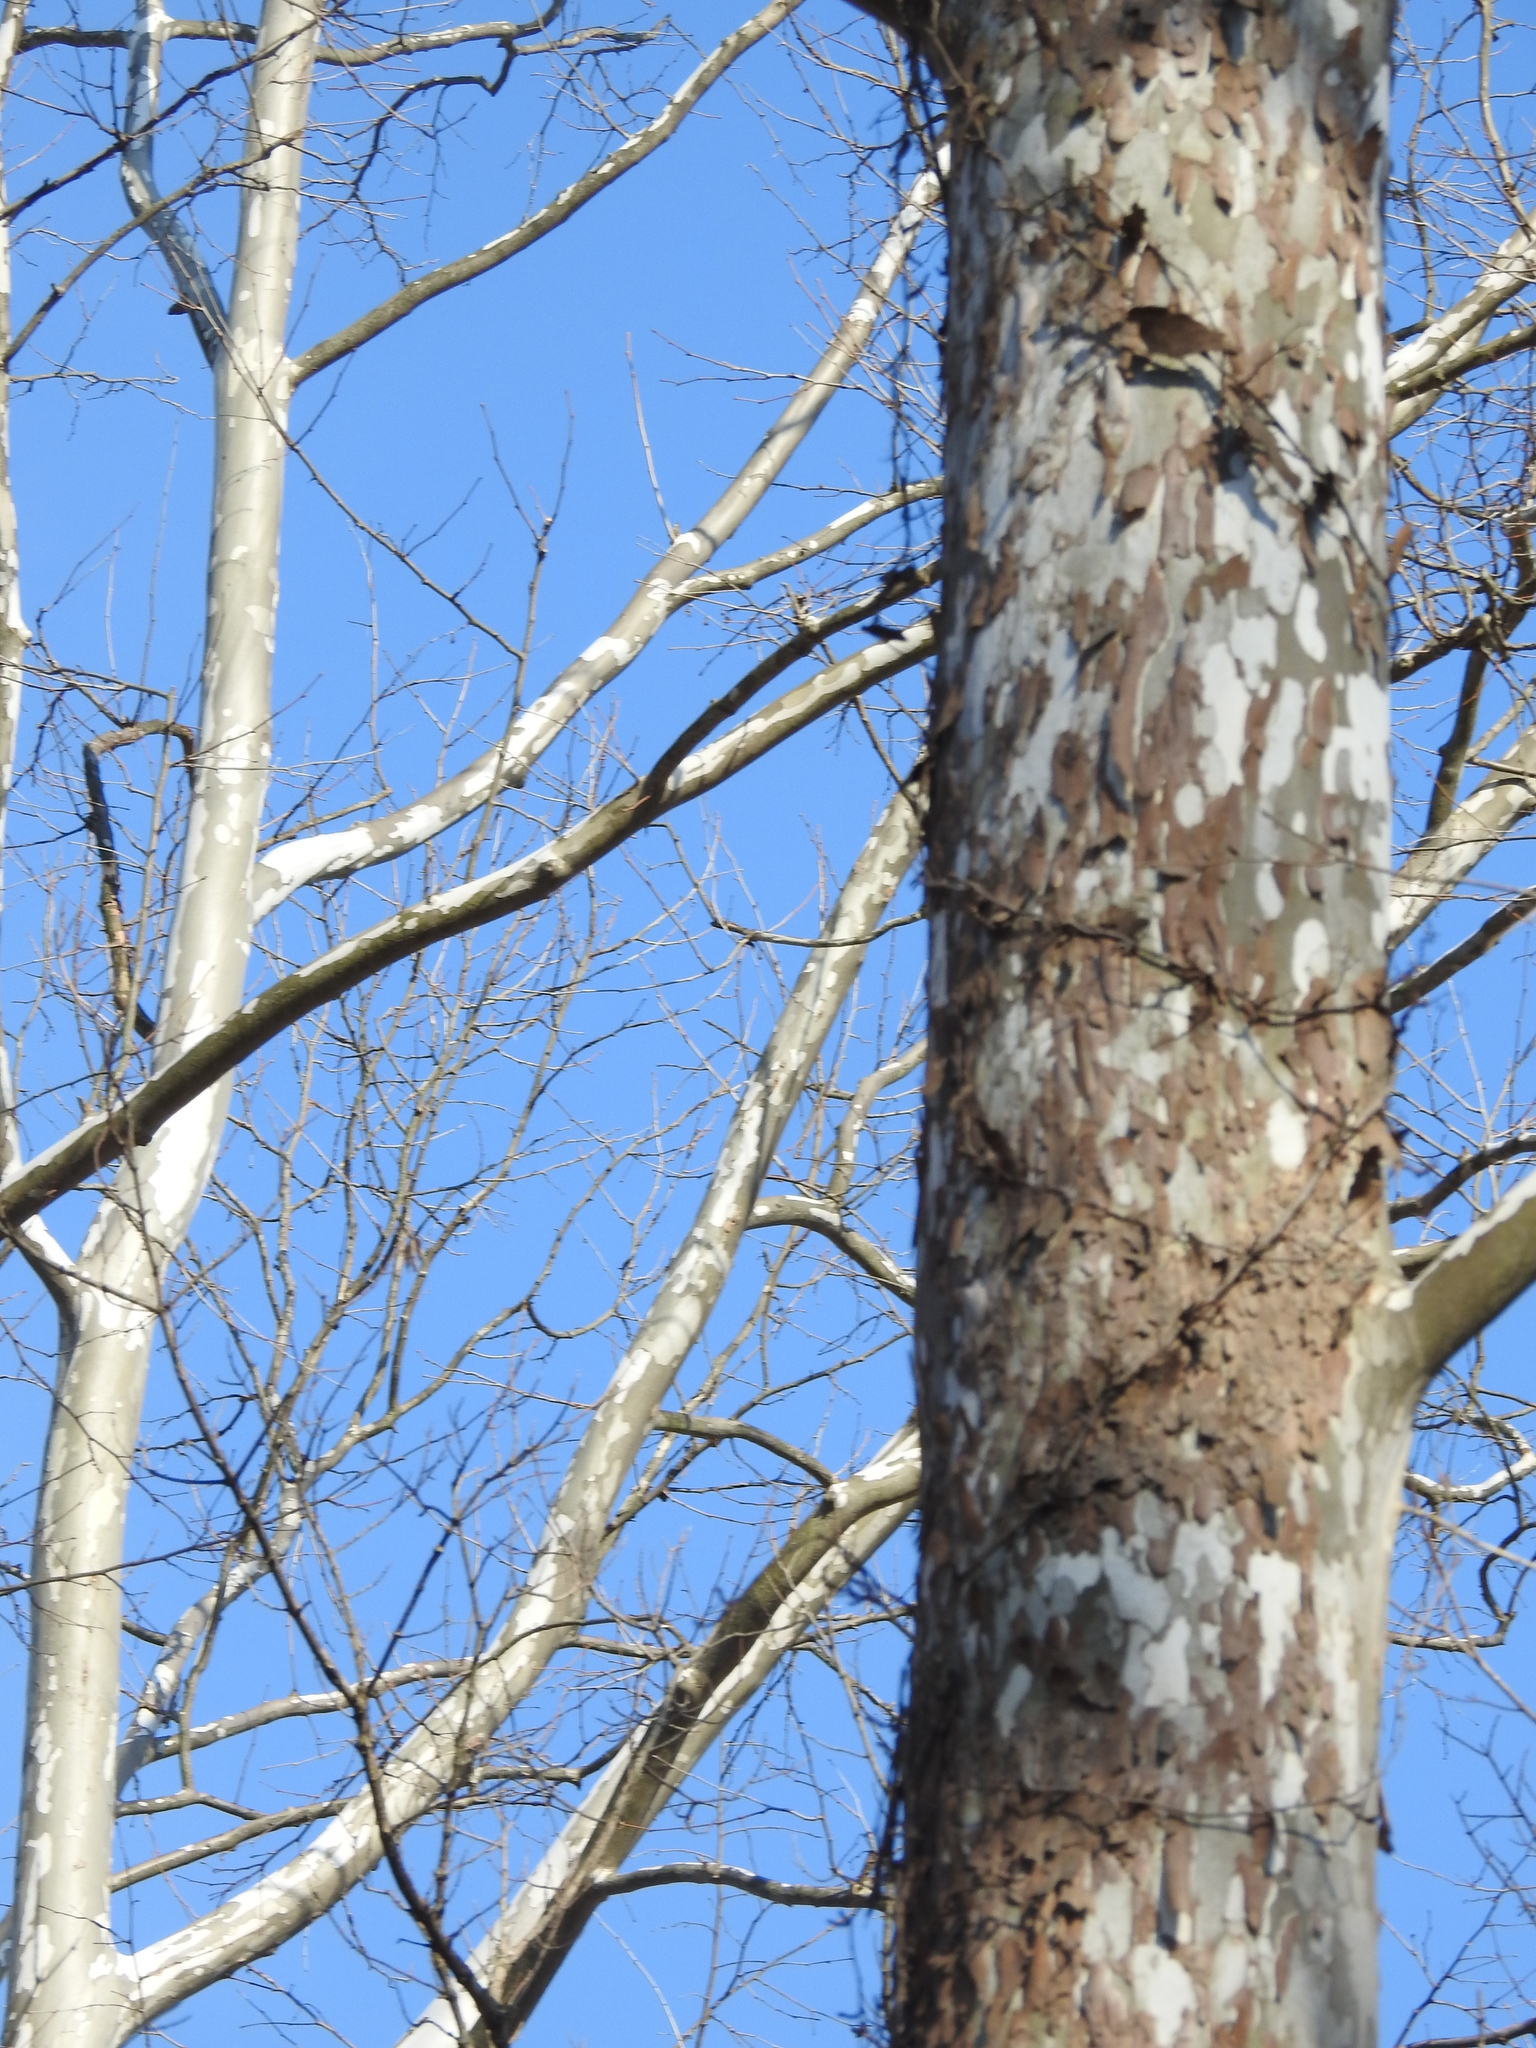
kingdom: Plantae
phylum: Tracheophyta
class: Magnoliopsida
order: Proteales
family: Platanaceae
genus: Platanus
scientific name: Platanus occidentalis
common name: American sycamore
